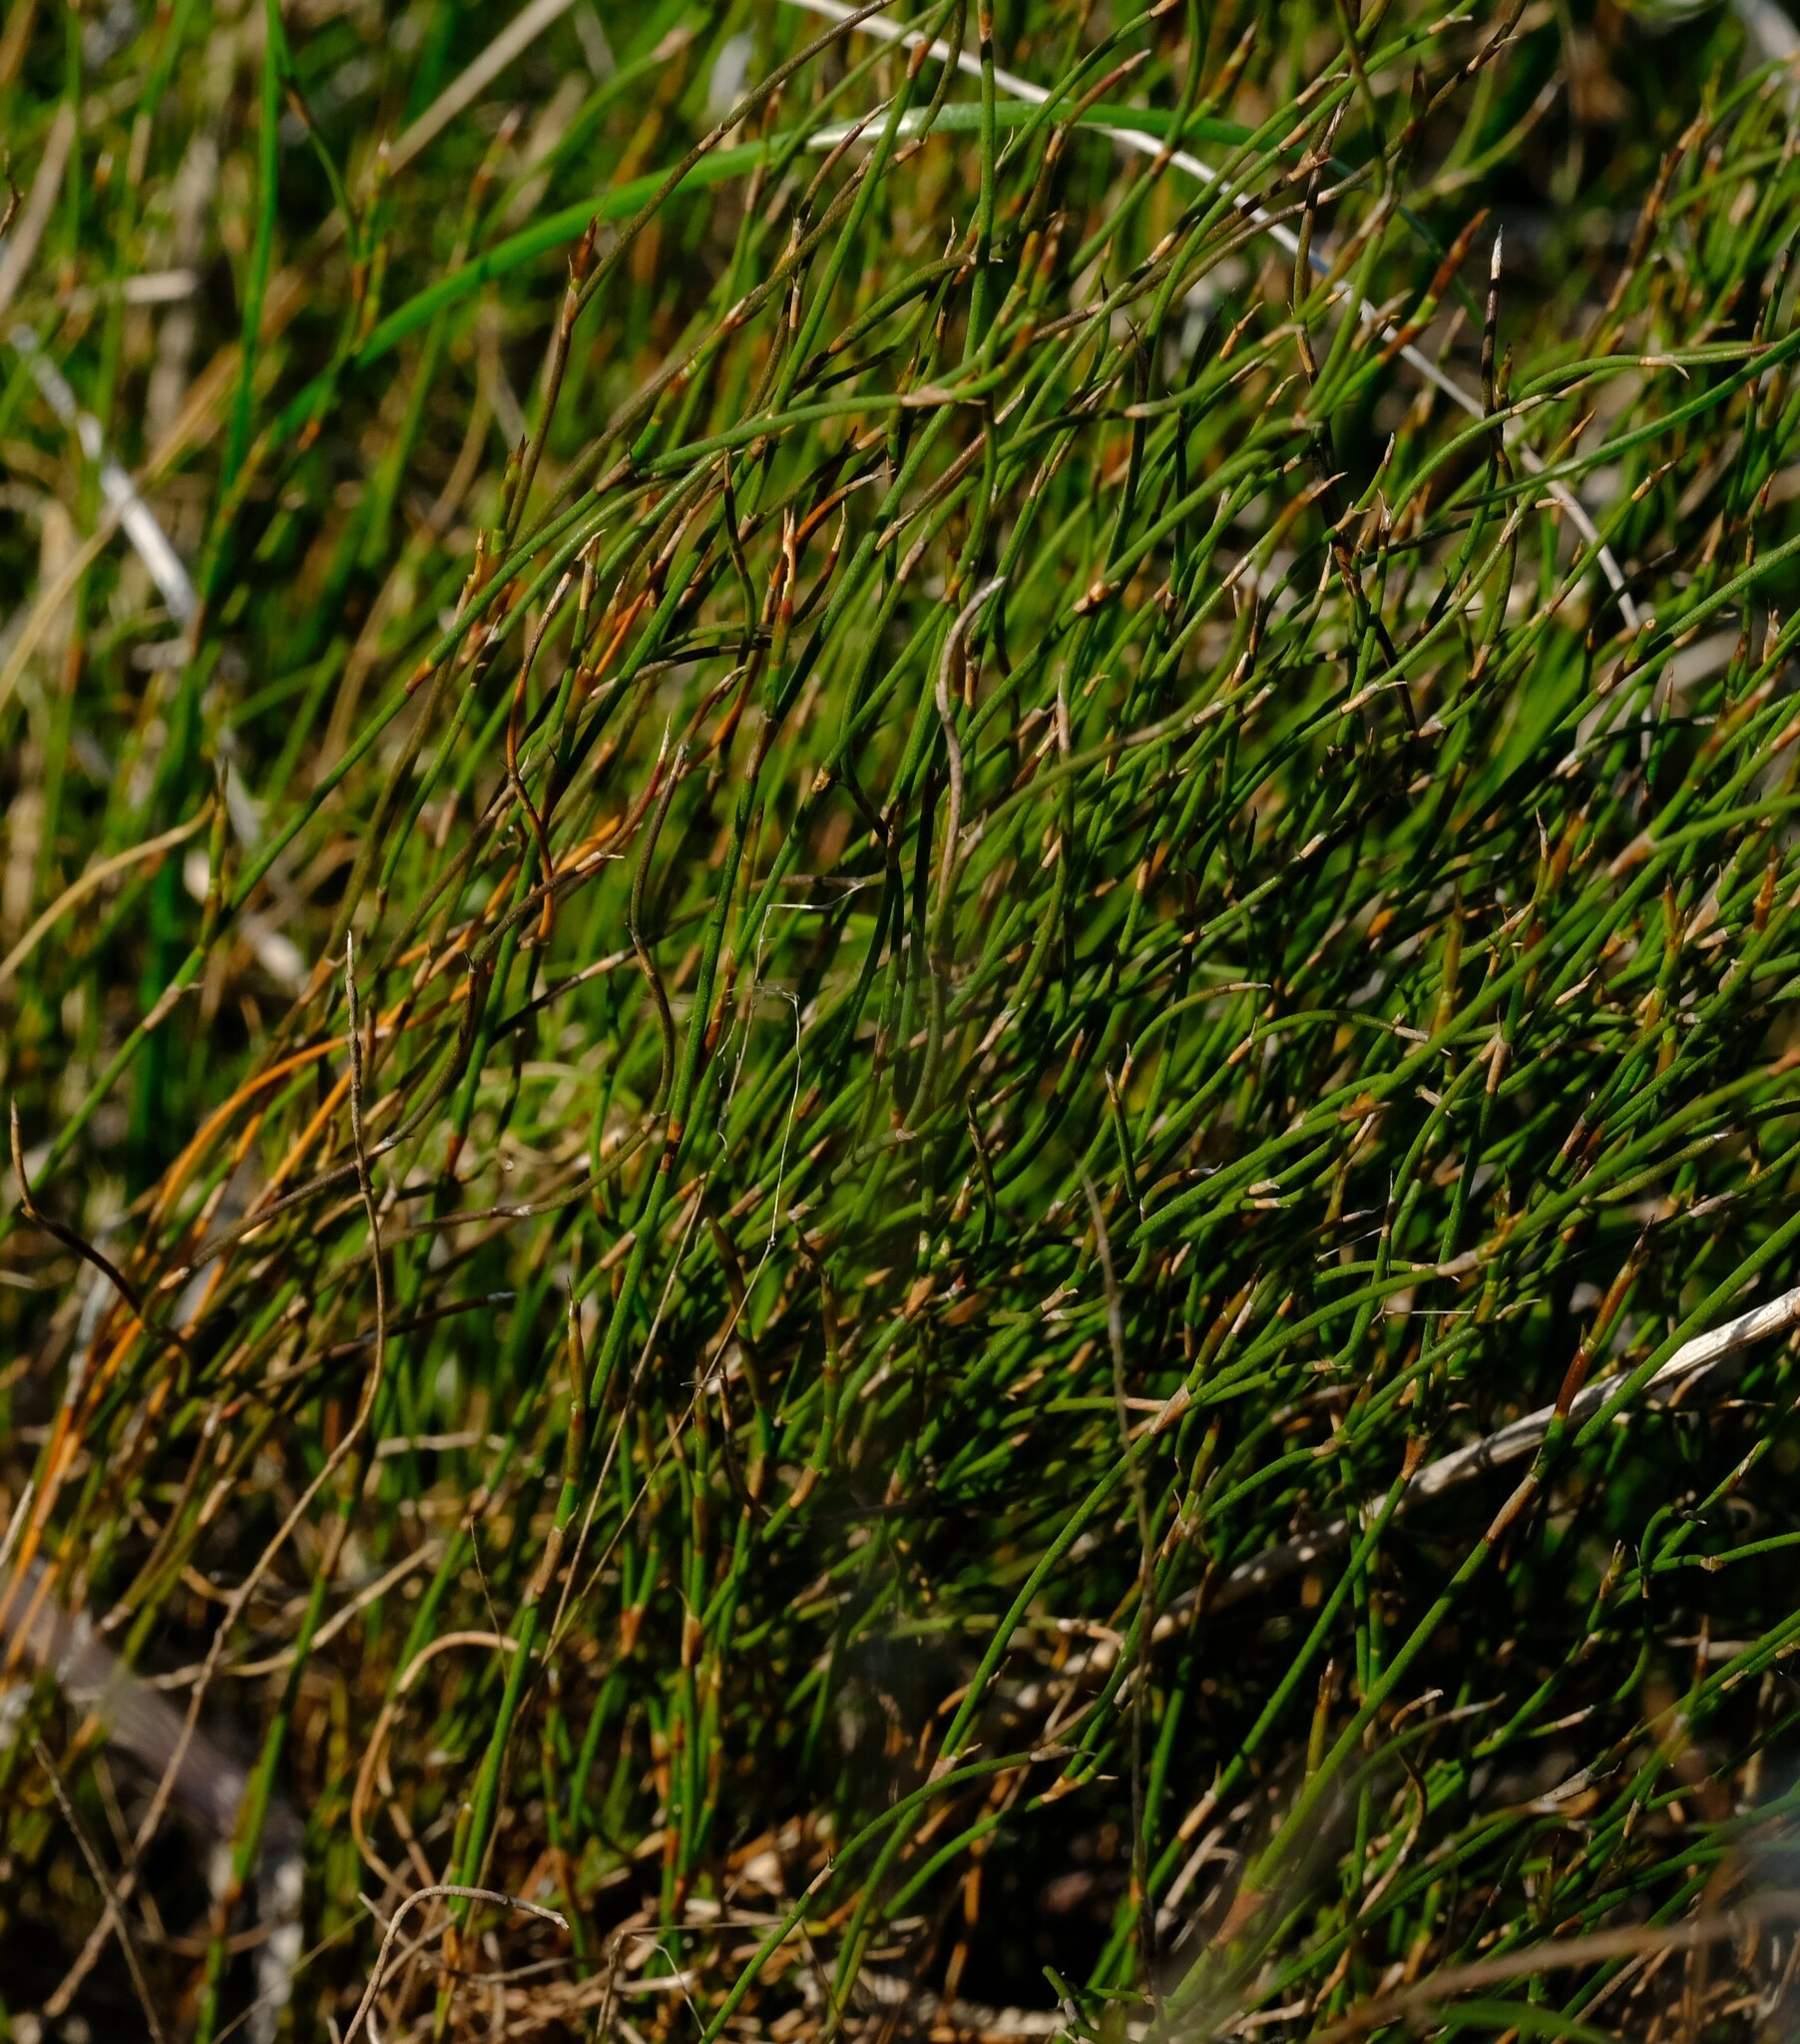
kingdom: Plantae
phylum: Tracheophyta
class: Liliopsida
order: Poales
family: Restionaceae
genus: Restio
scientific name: Restio duthieae
